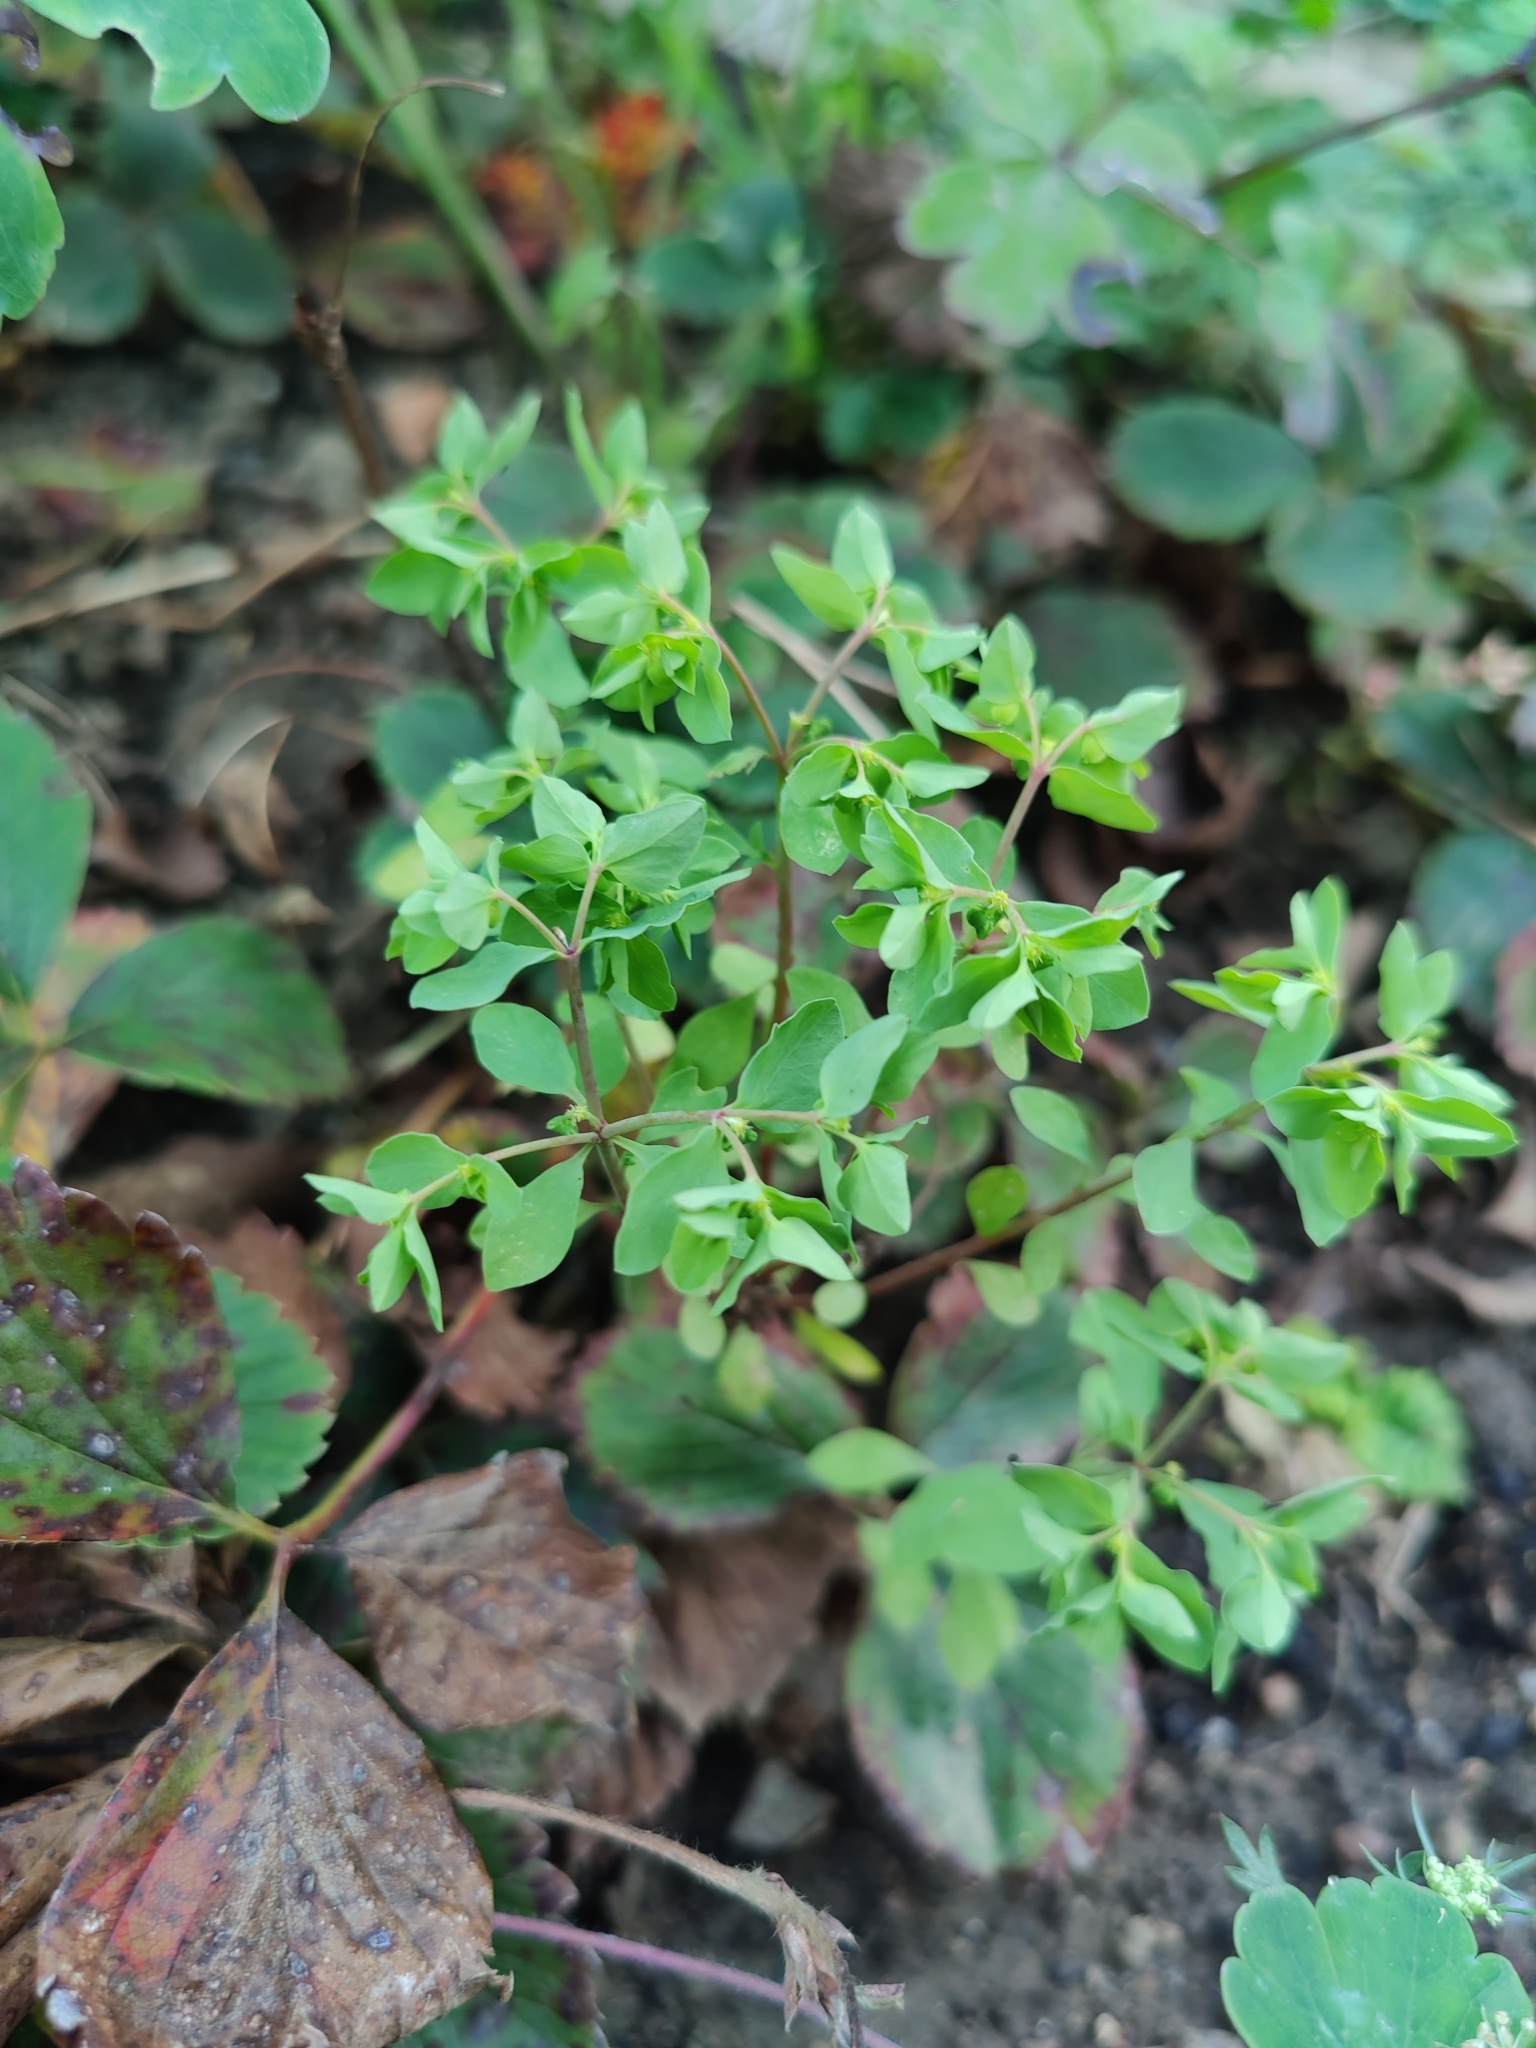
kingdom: Plantae
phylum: Tracheophyta
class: Magnoliopsida
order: Malpighiales
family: Euphorbiaceae
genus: Euphorbia
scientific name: Euphorbia peplus
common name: Petty spurge
